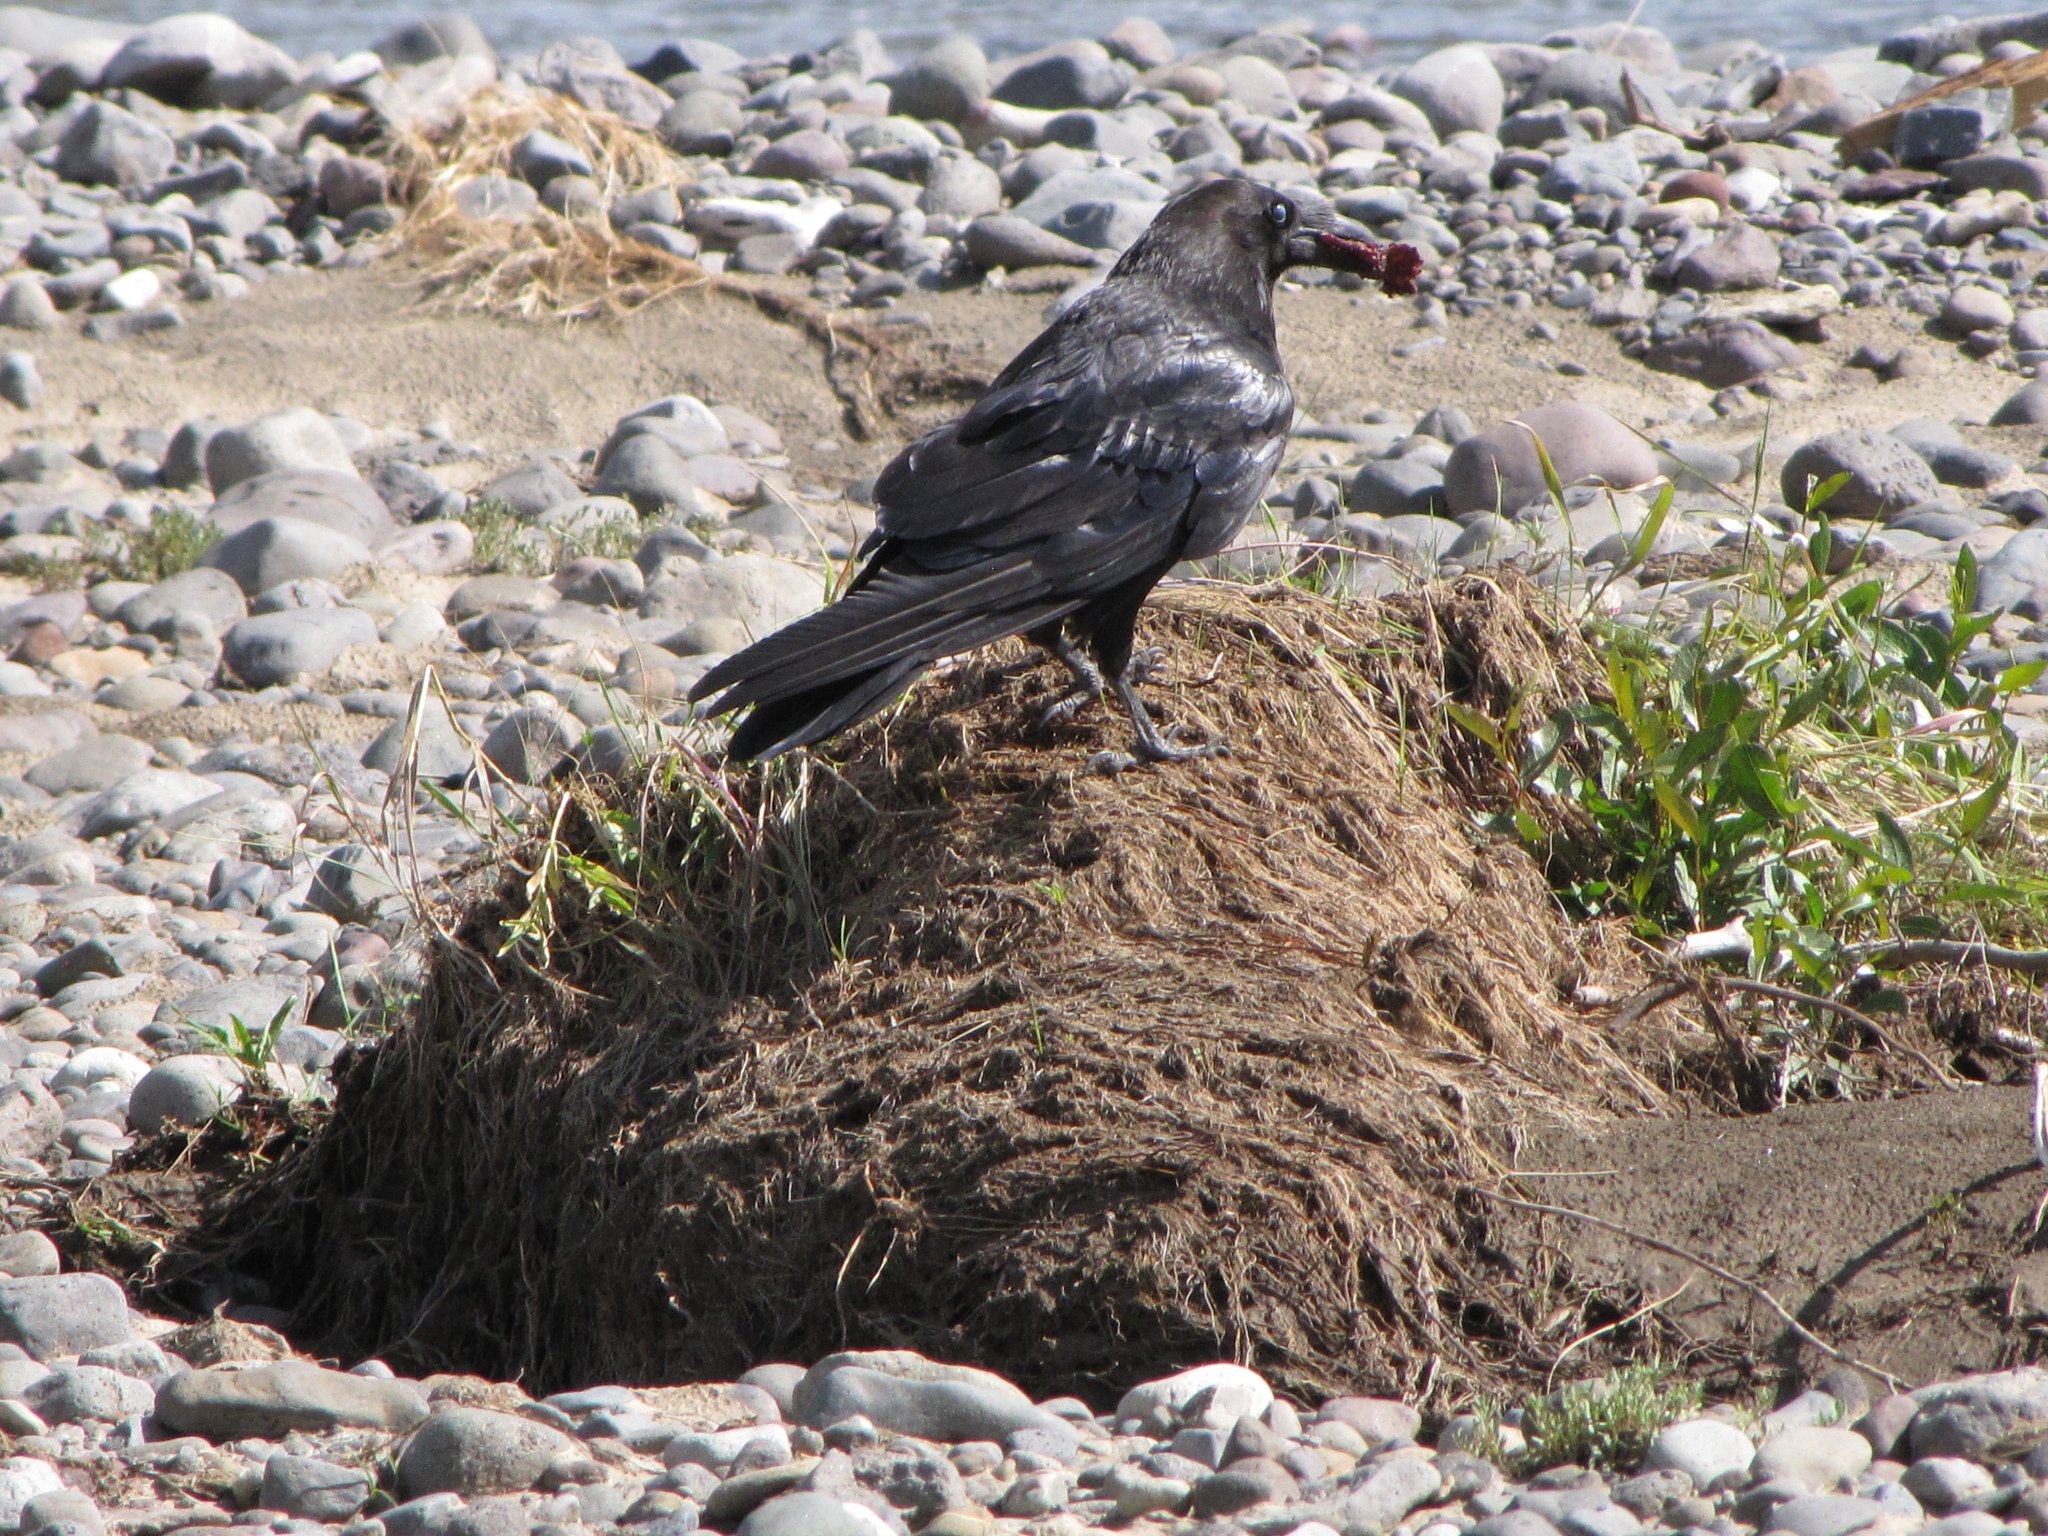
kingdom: Animalia
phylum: Chordata
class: Aves
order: Passeriformes
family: Corvidae
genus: Corvus
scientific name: Corvus corax
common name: Common raven
